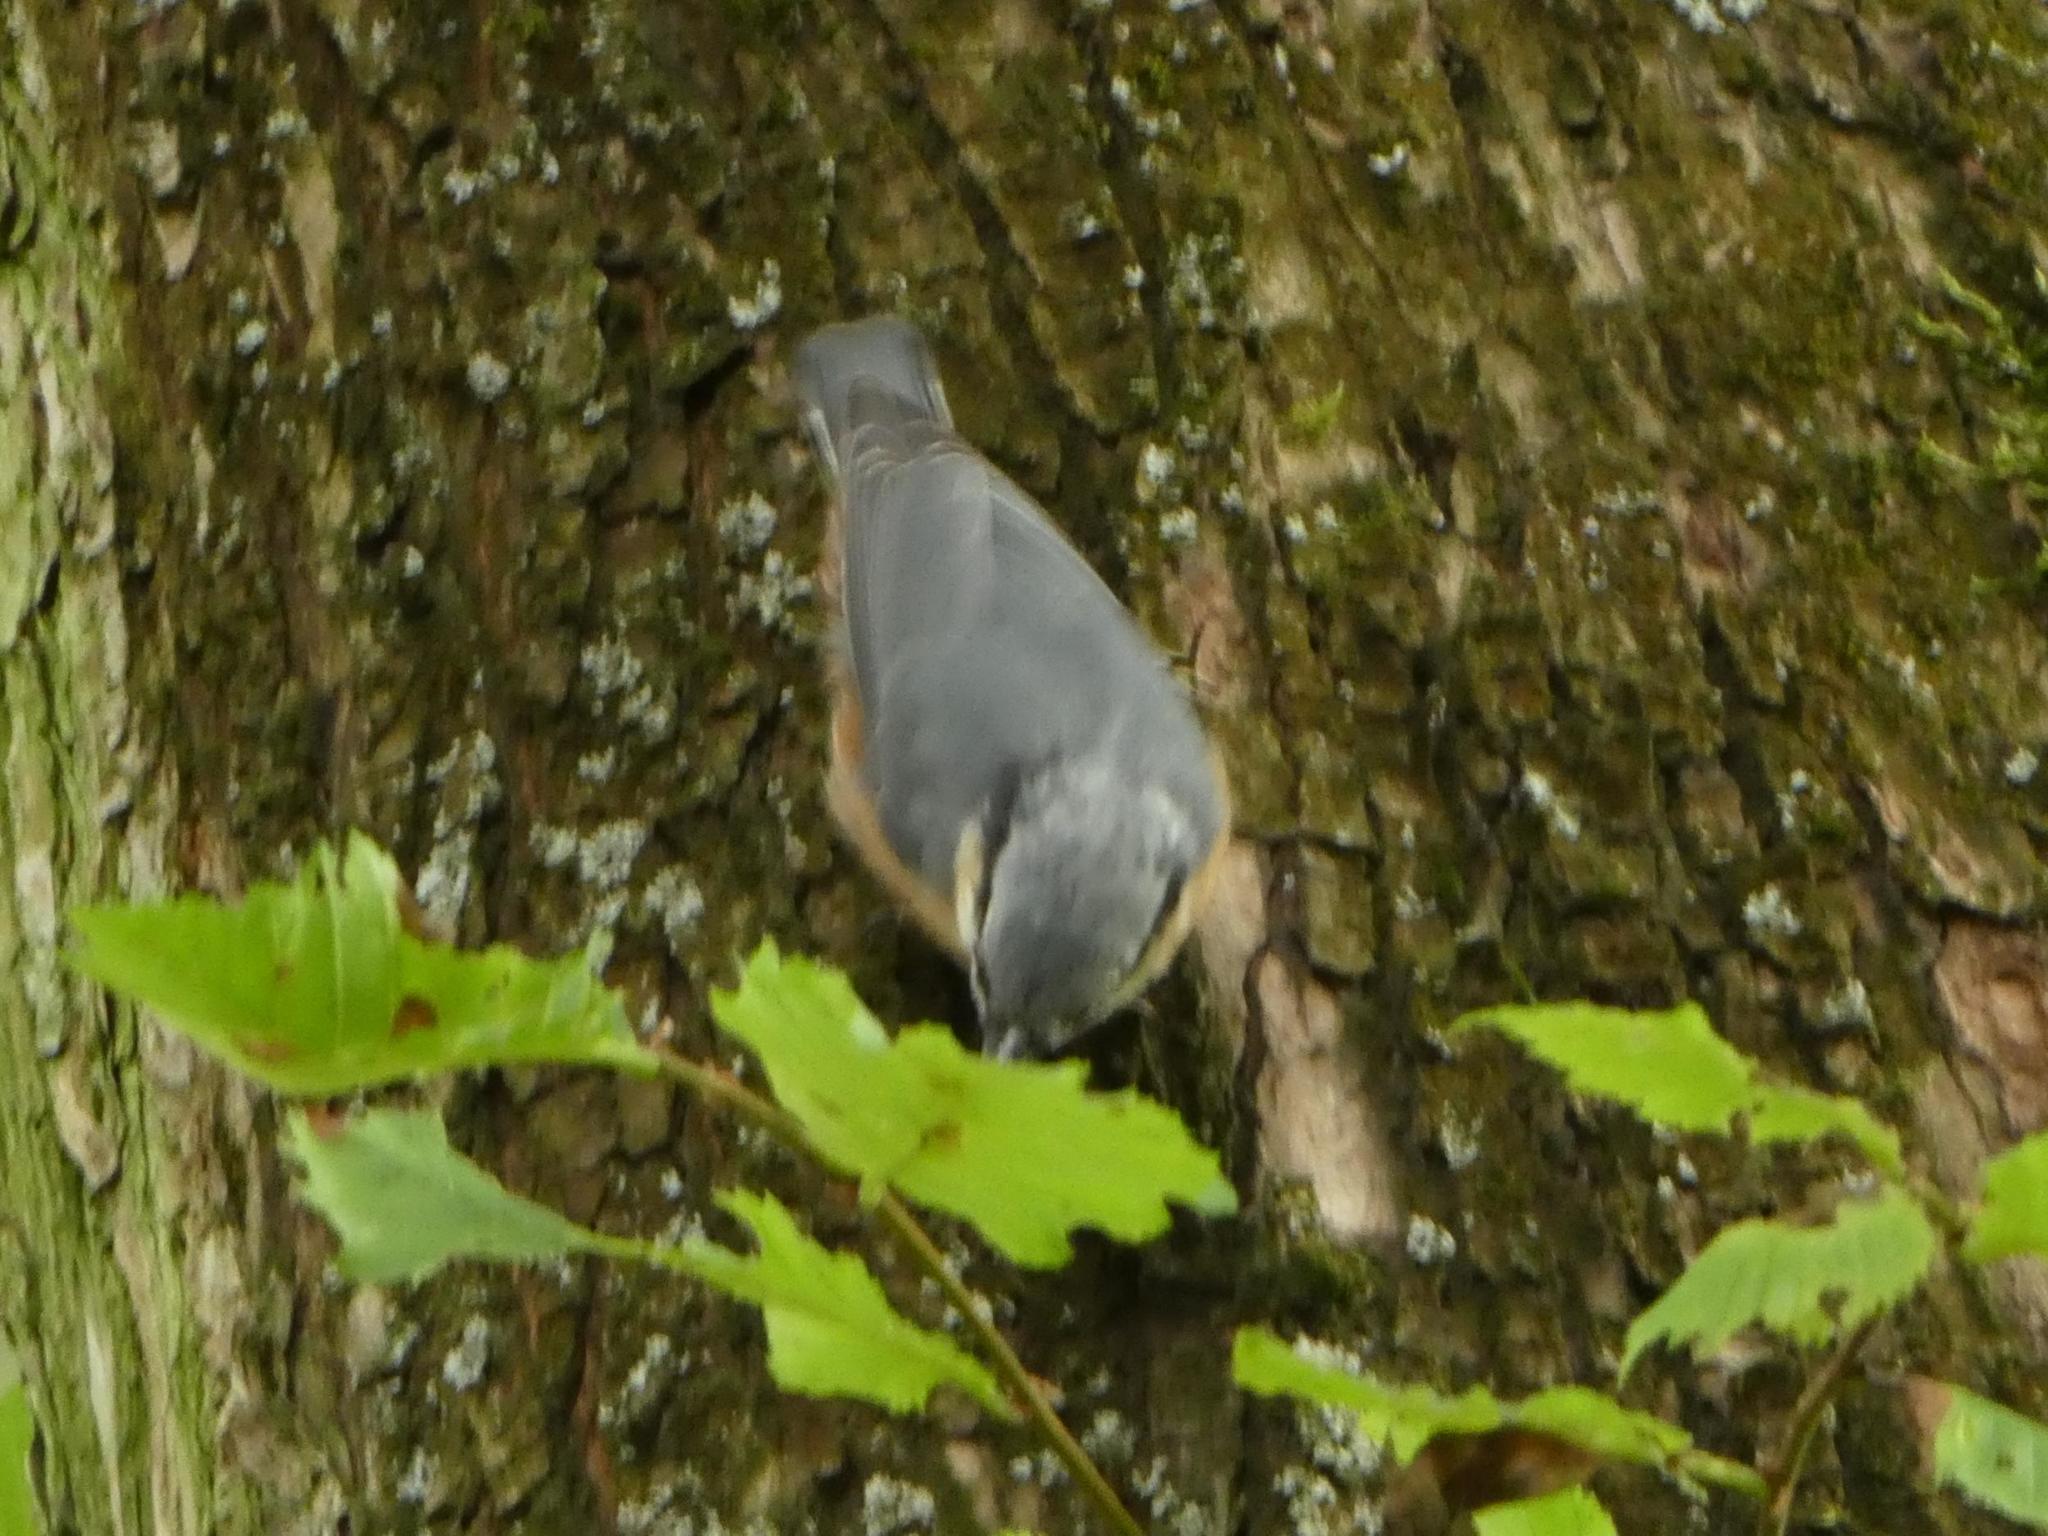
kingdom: Animalia
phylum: Chordata
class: Aves
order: Passeriformes
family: Sittidae
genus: Sitta
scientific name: Sitta europaea
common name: Eurasian nuthatch
